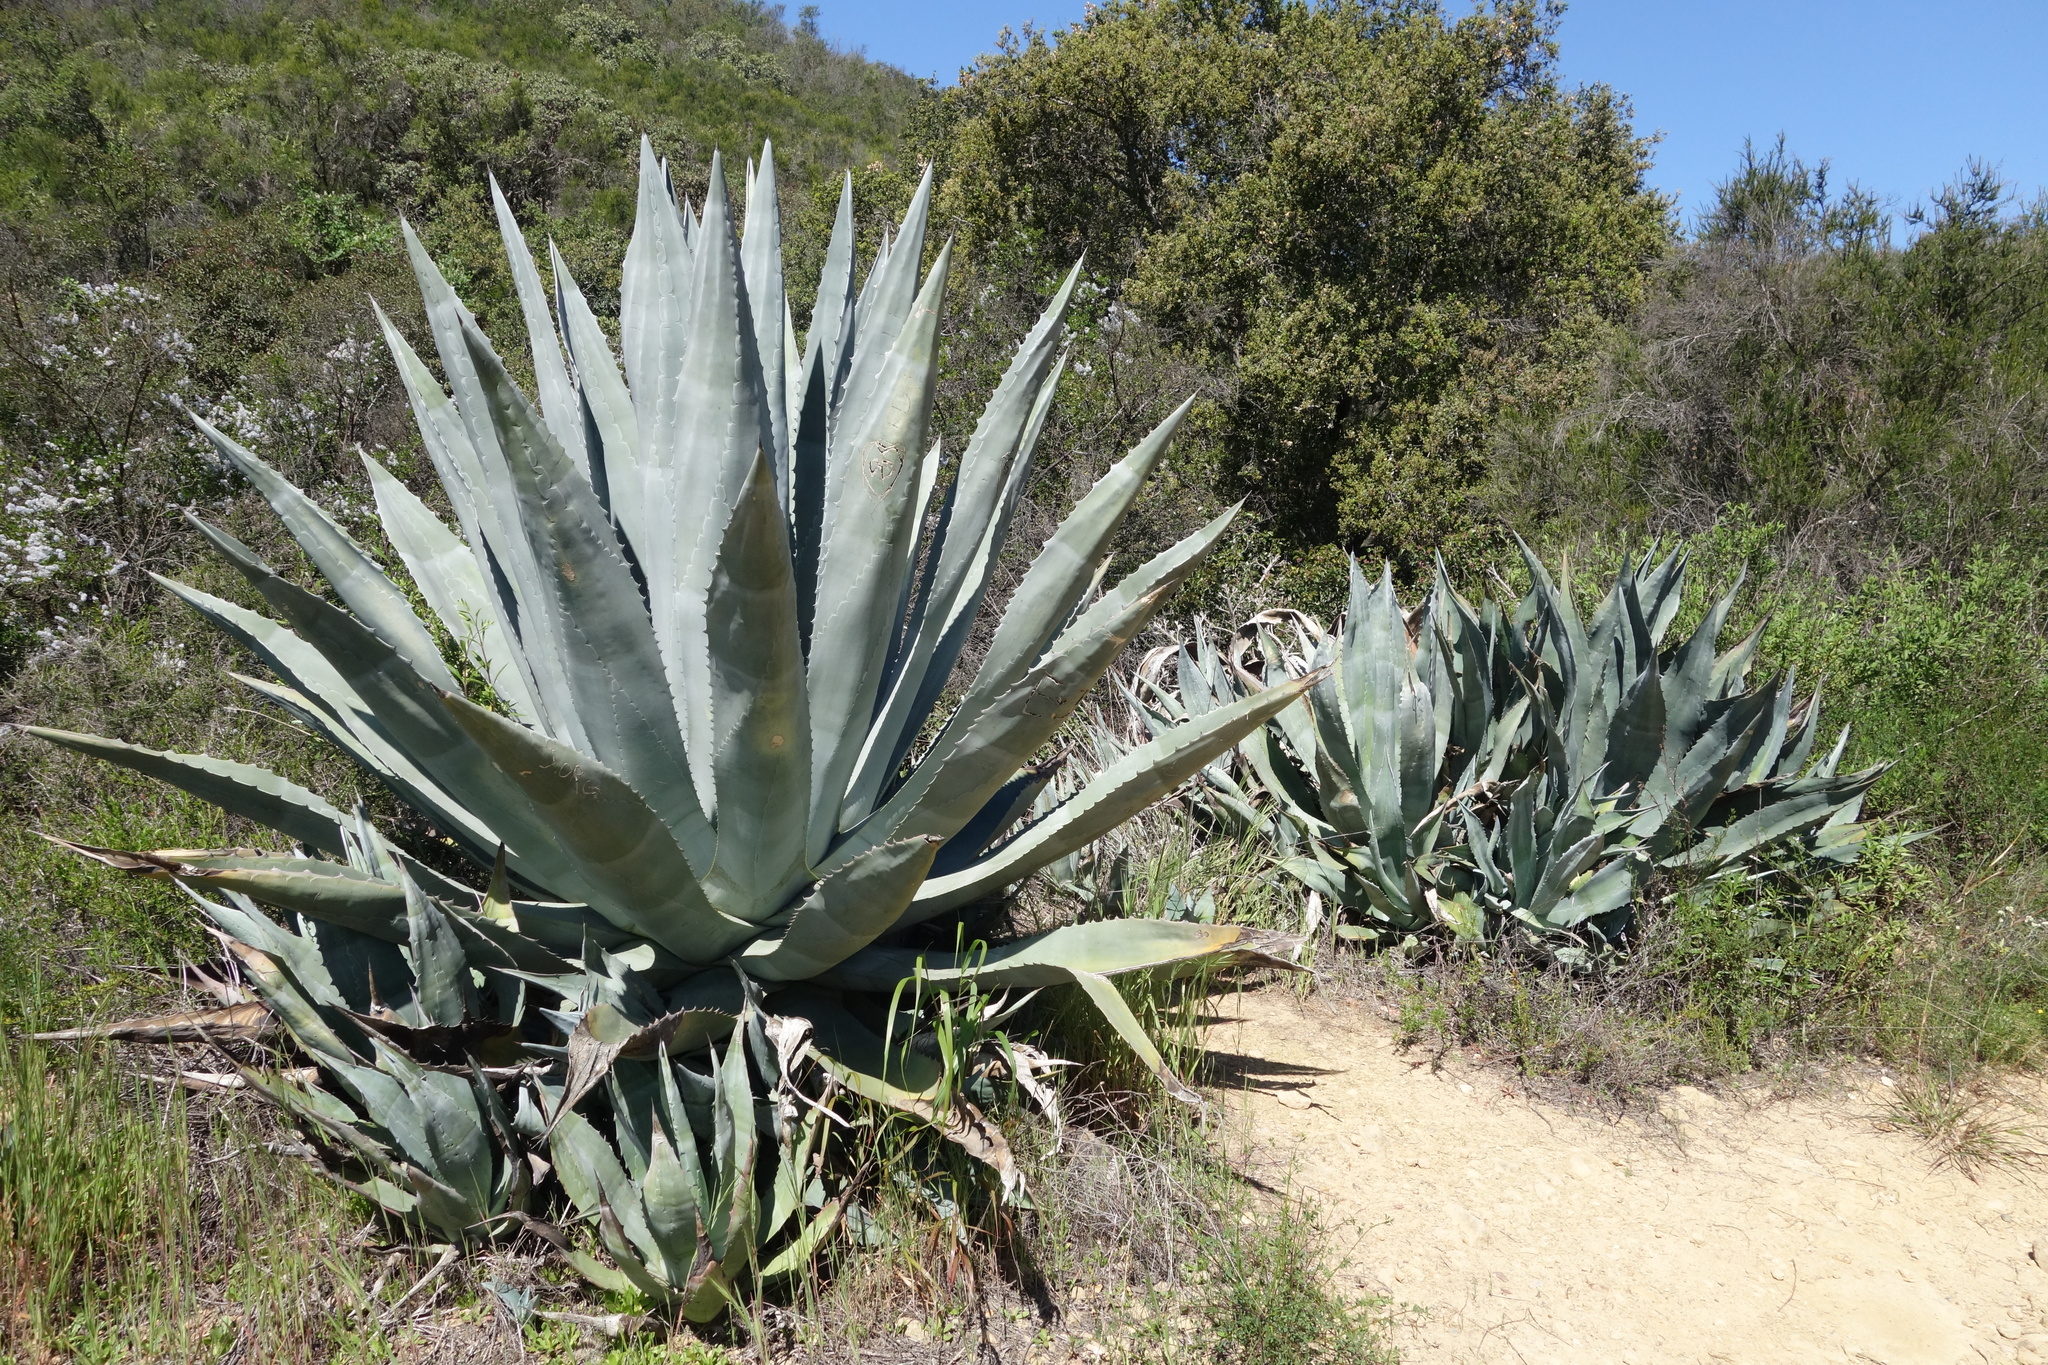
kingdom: Plantae
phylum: Tracheophyta
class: Liliopsida
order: Asparagales
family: Asparagaceae
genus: Agave
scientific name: Agave americana
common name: Centuryplant
